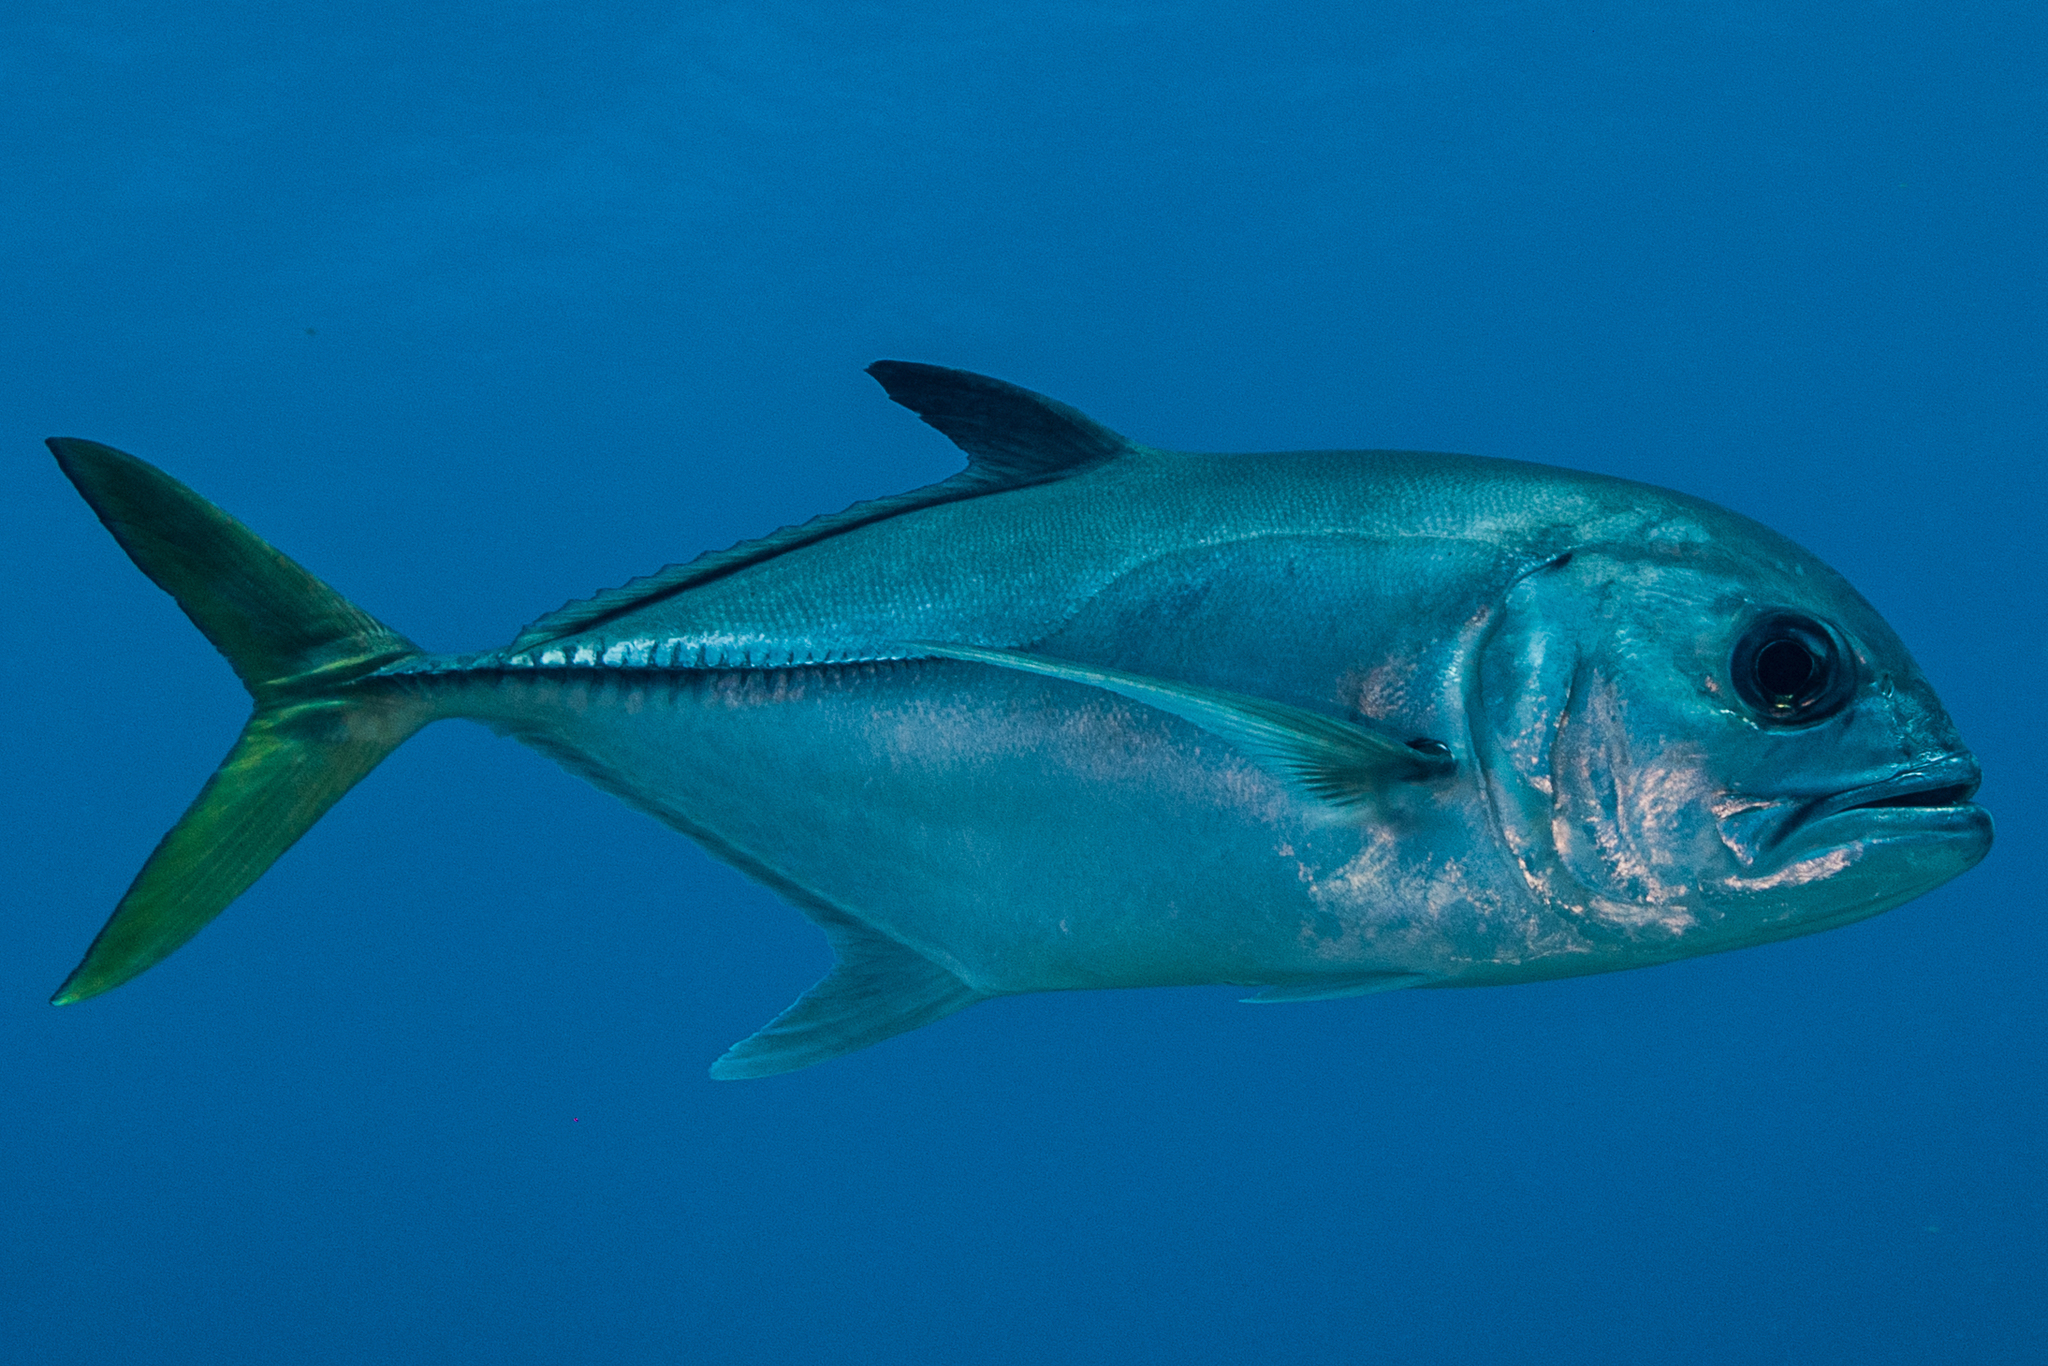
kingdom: Animalia
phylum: Chordata
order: Perciformes
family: Carangidae
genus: Caranx
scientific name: Caranx latus
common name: Horse eye jack
